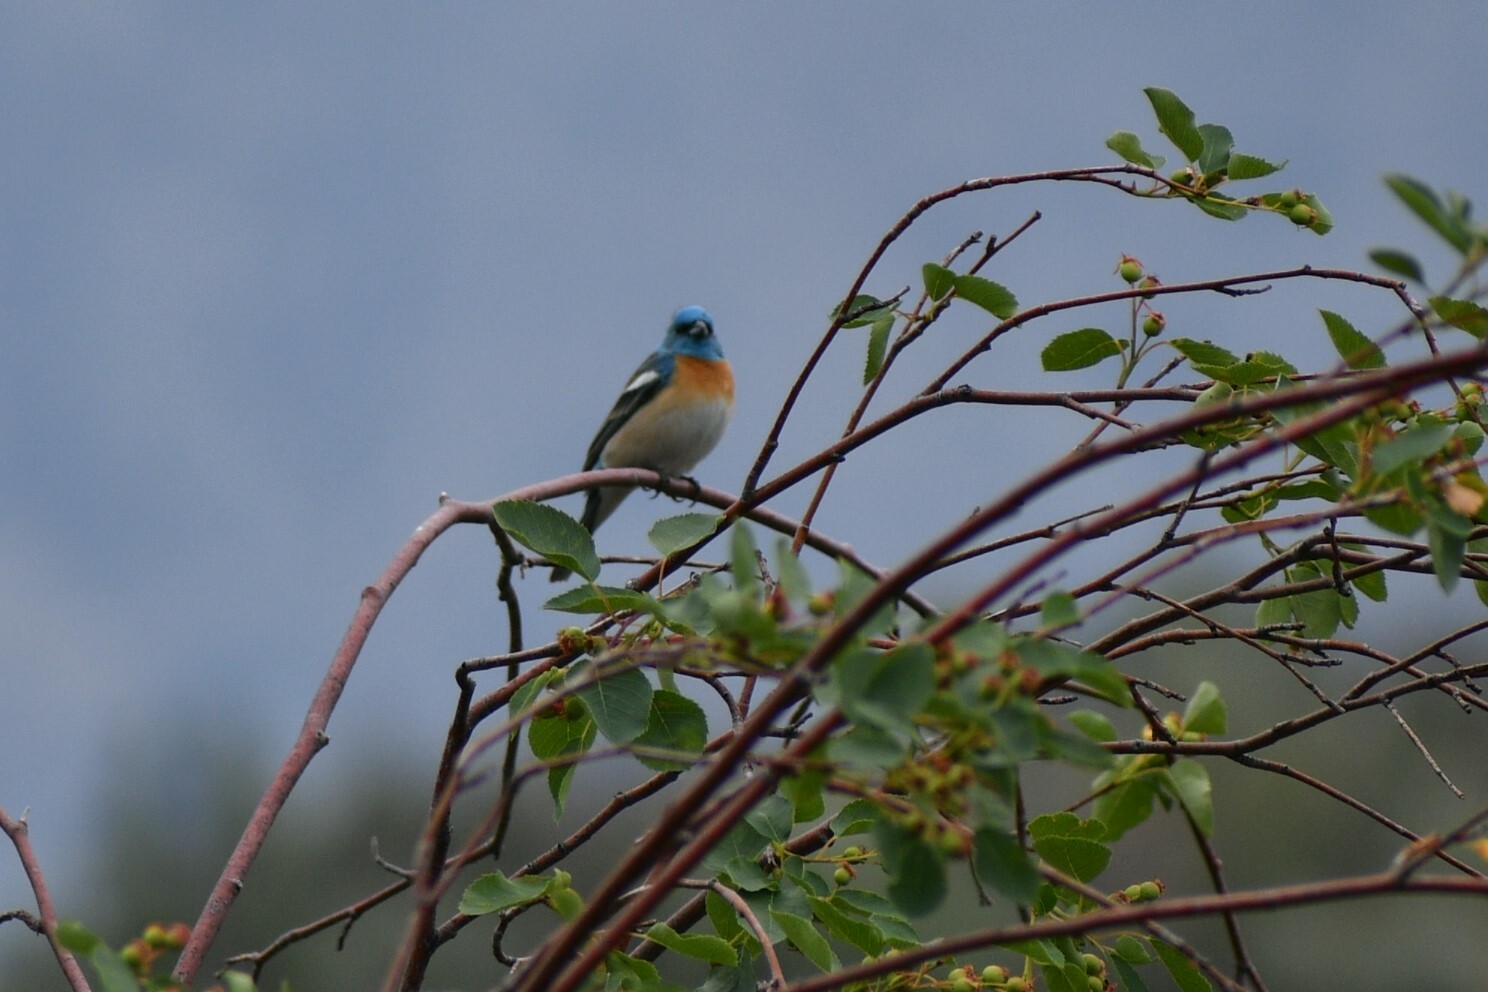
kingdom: Animalia
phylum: Chordata
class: Aves
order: Passeriformes
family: Cardinalidae
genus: Passerina
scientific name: Passerina amoena
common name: Lazuli bunting
